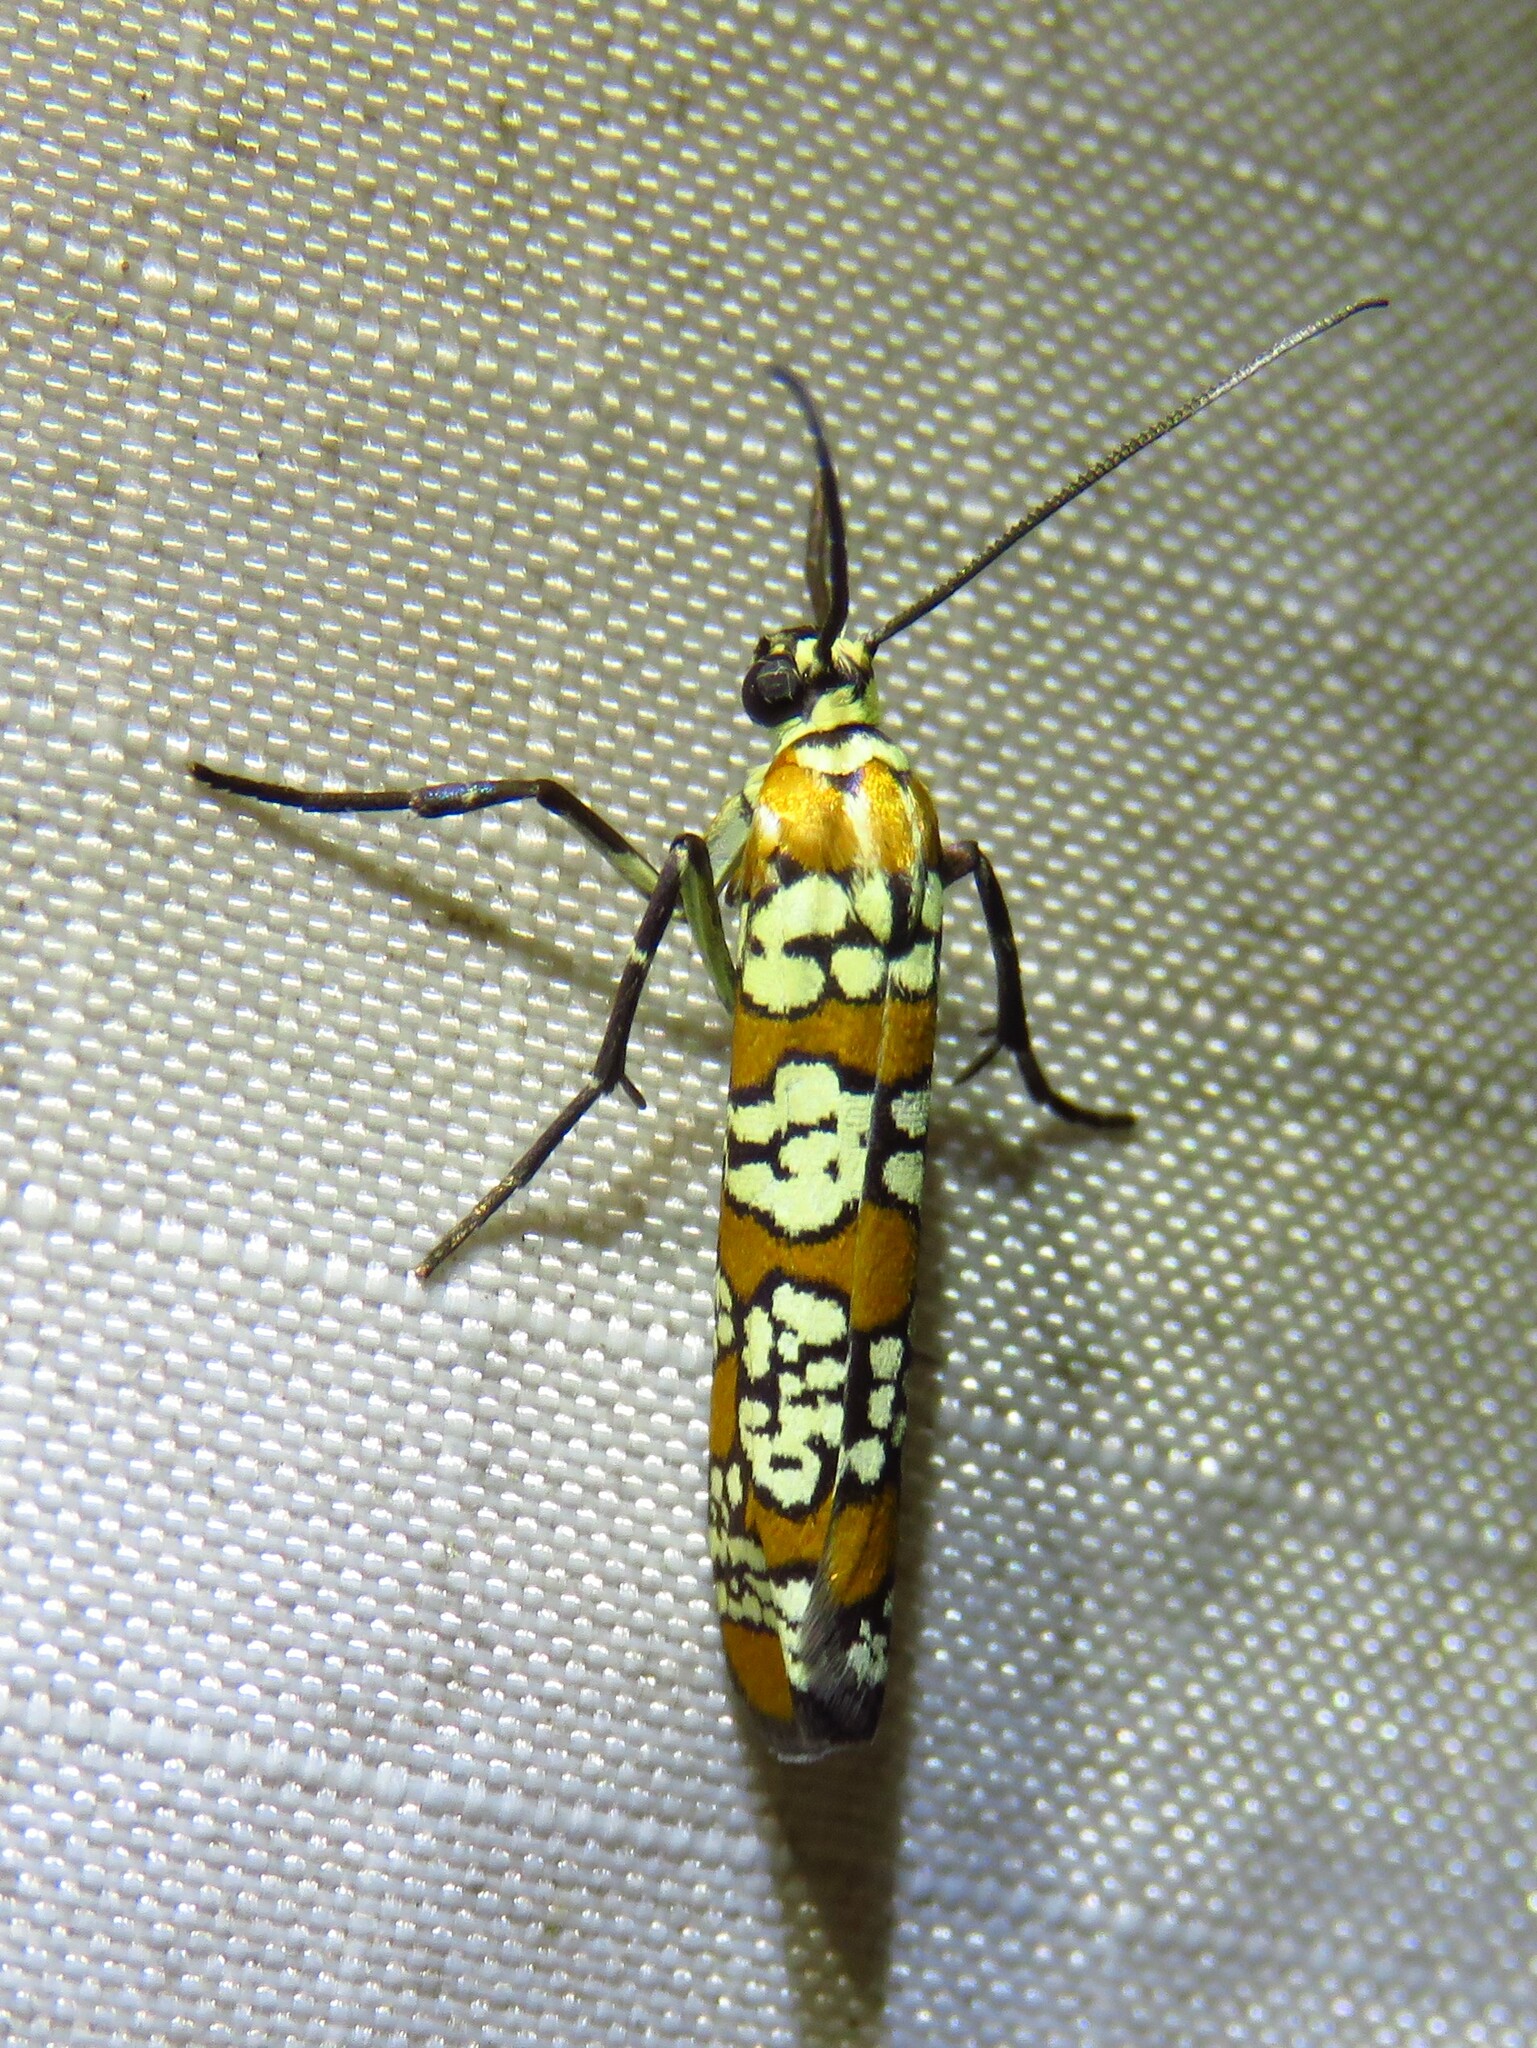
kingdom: Animalia
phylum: Arthropoda
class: Insecta
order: Lepidoptera
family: Attevidae
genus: Atteva
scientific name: Atteva punctella
